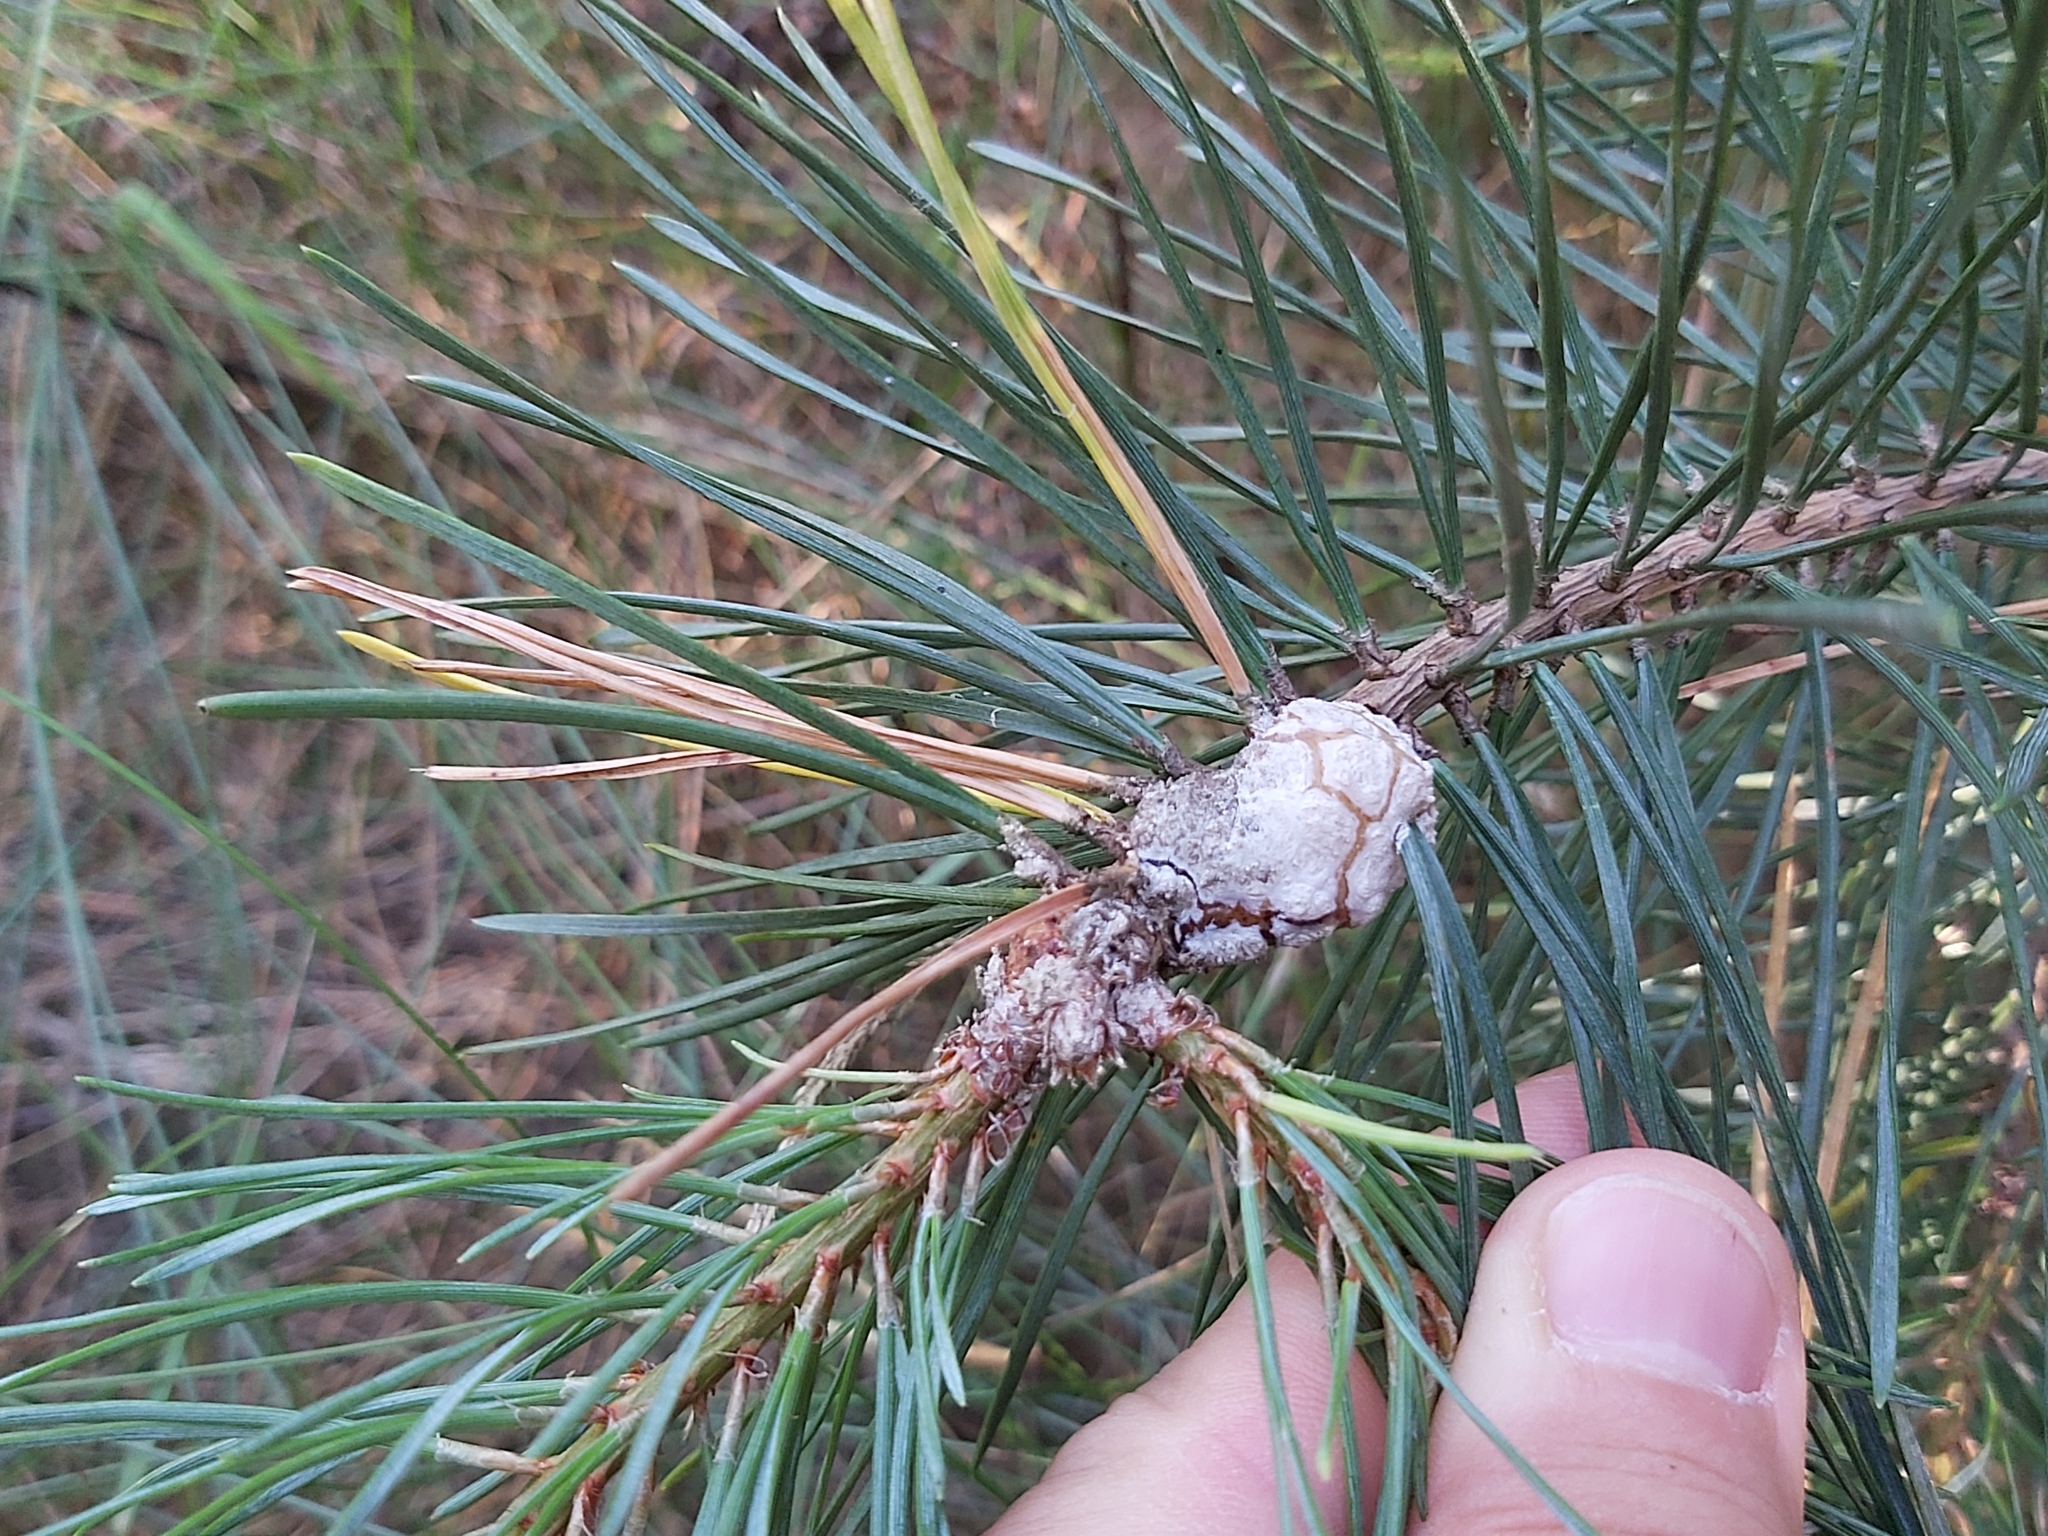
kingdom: Animalia
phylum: Arthropoda
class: Insecta
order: Lepidoptera
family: Tortricidae
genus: Retinia
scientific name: Retinia resinella
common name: Pine resin-gall moth
